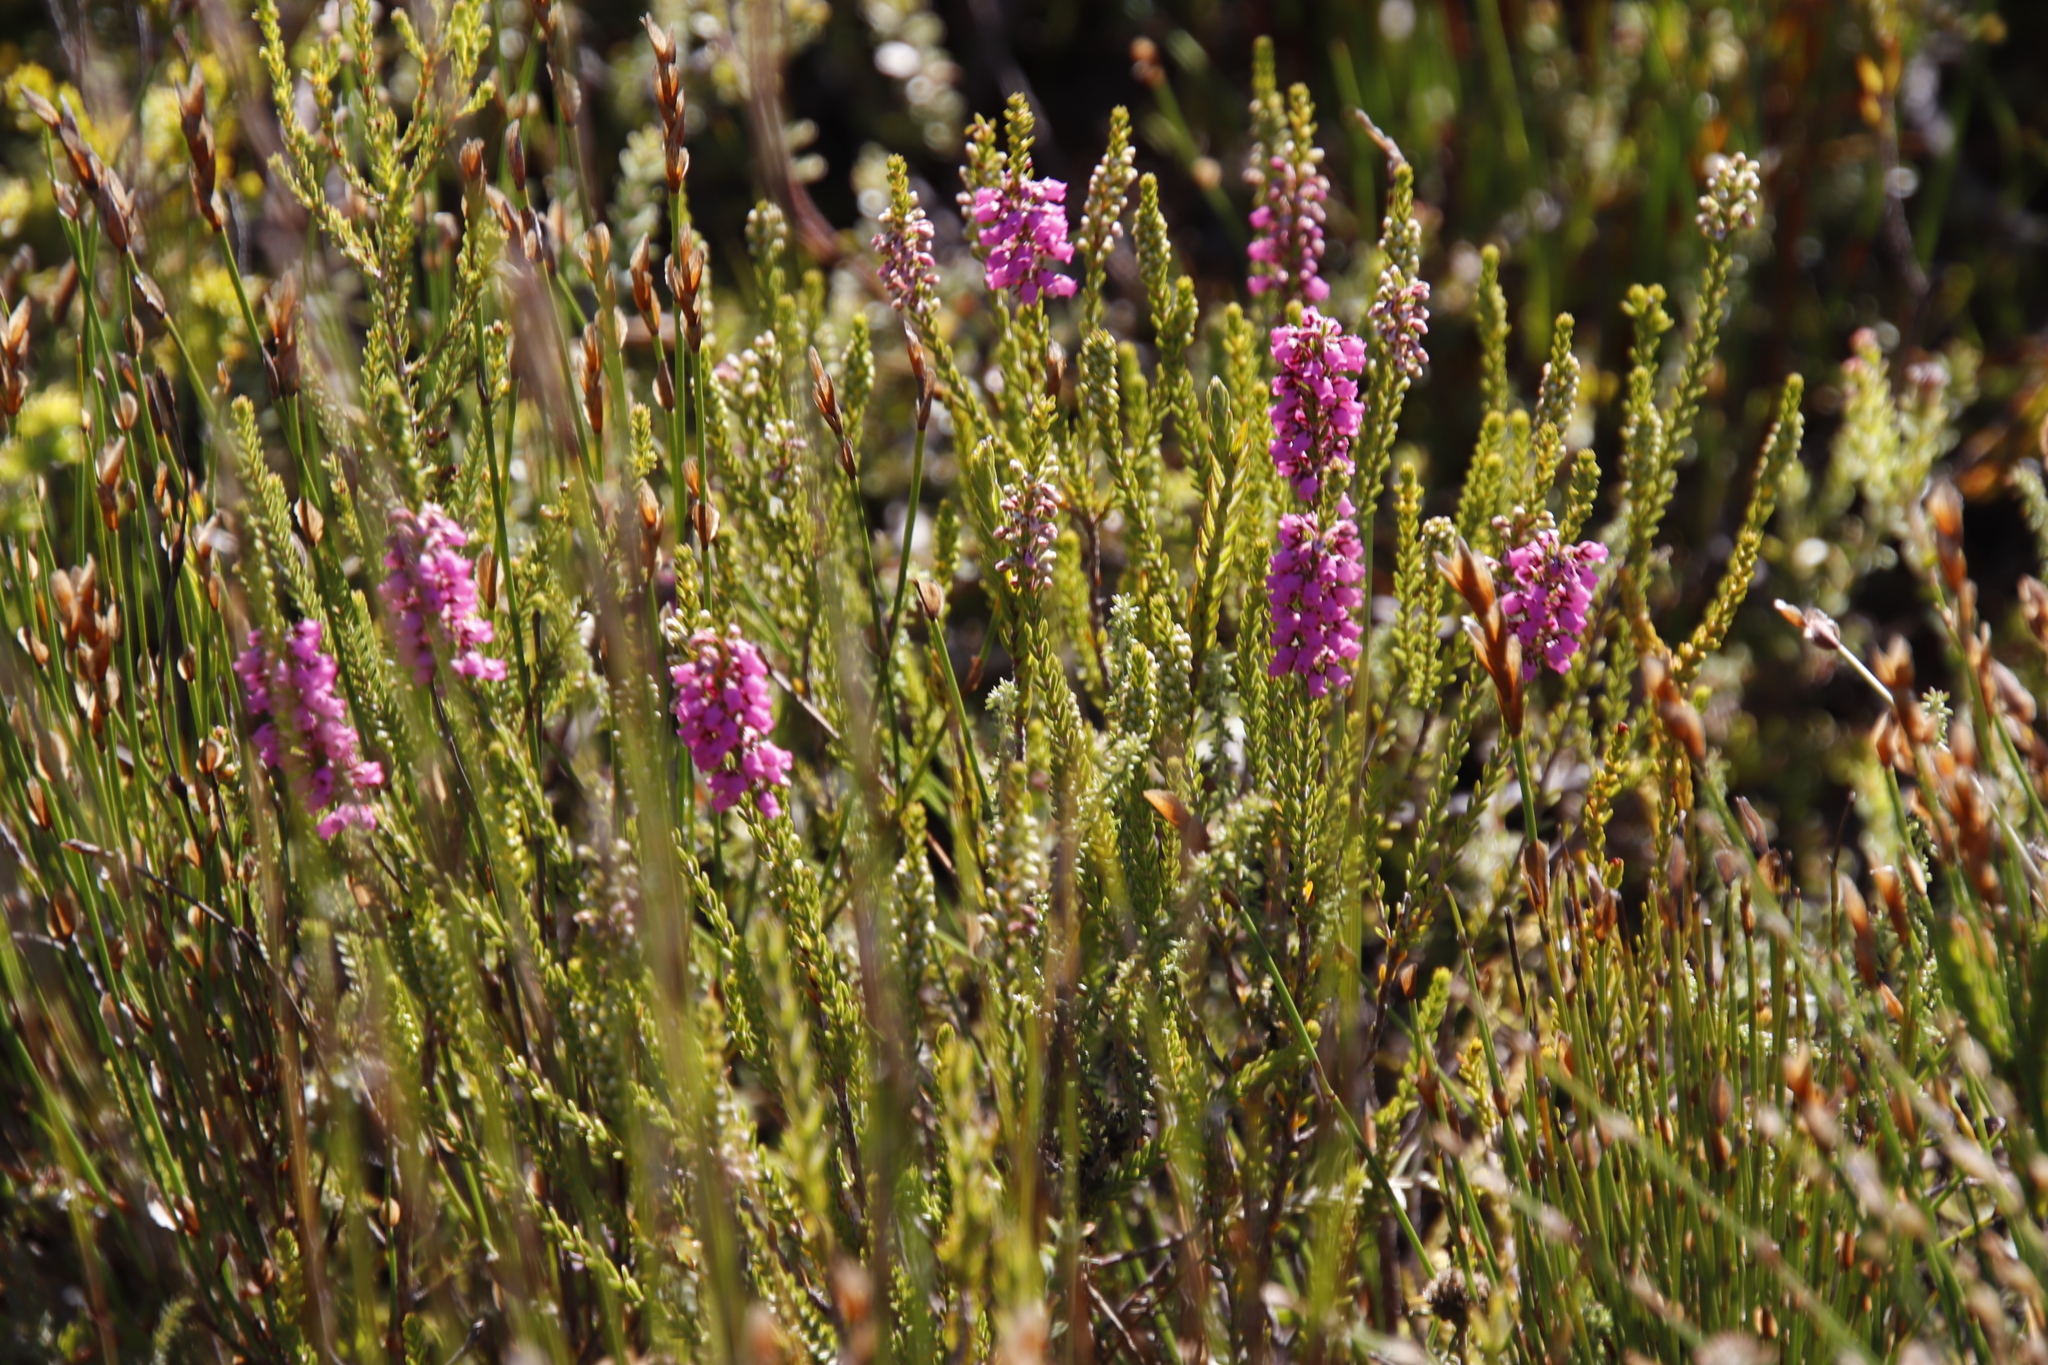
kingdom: Plantae
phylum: Tracheophyta
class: Magnoliopsida
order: Ericales
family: Ericaceae
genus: Erica
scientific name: Erica pulchella
